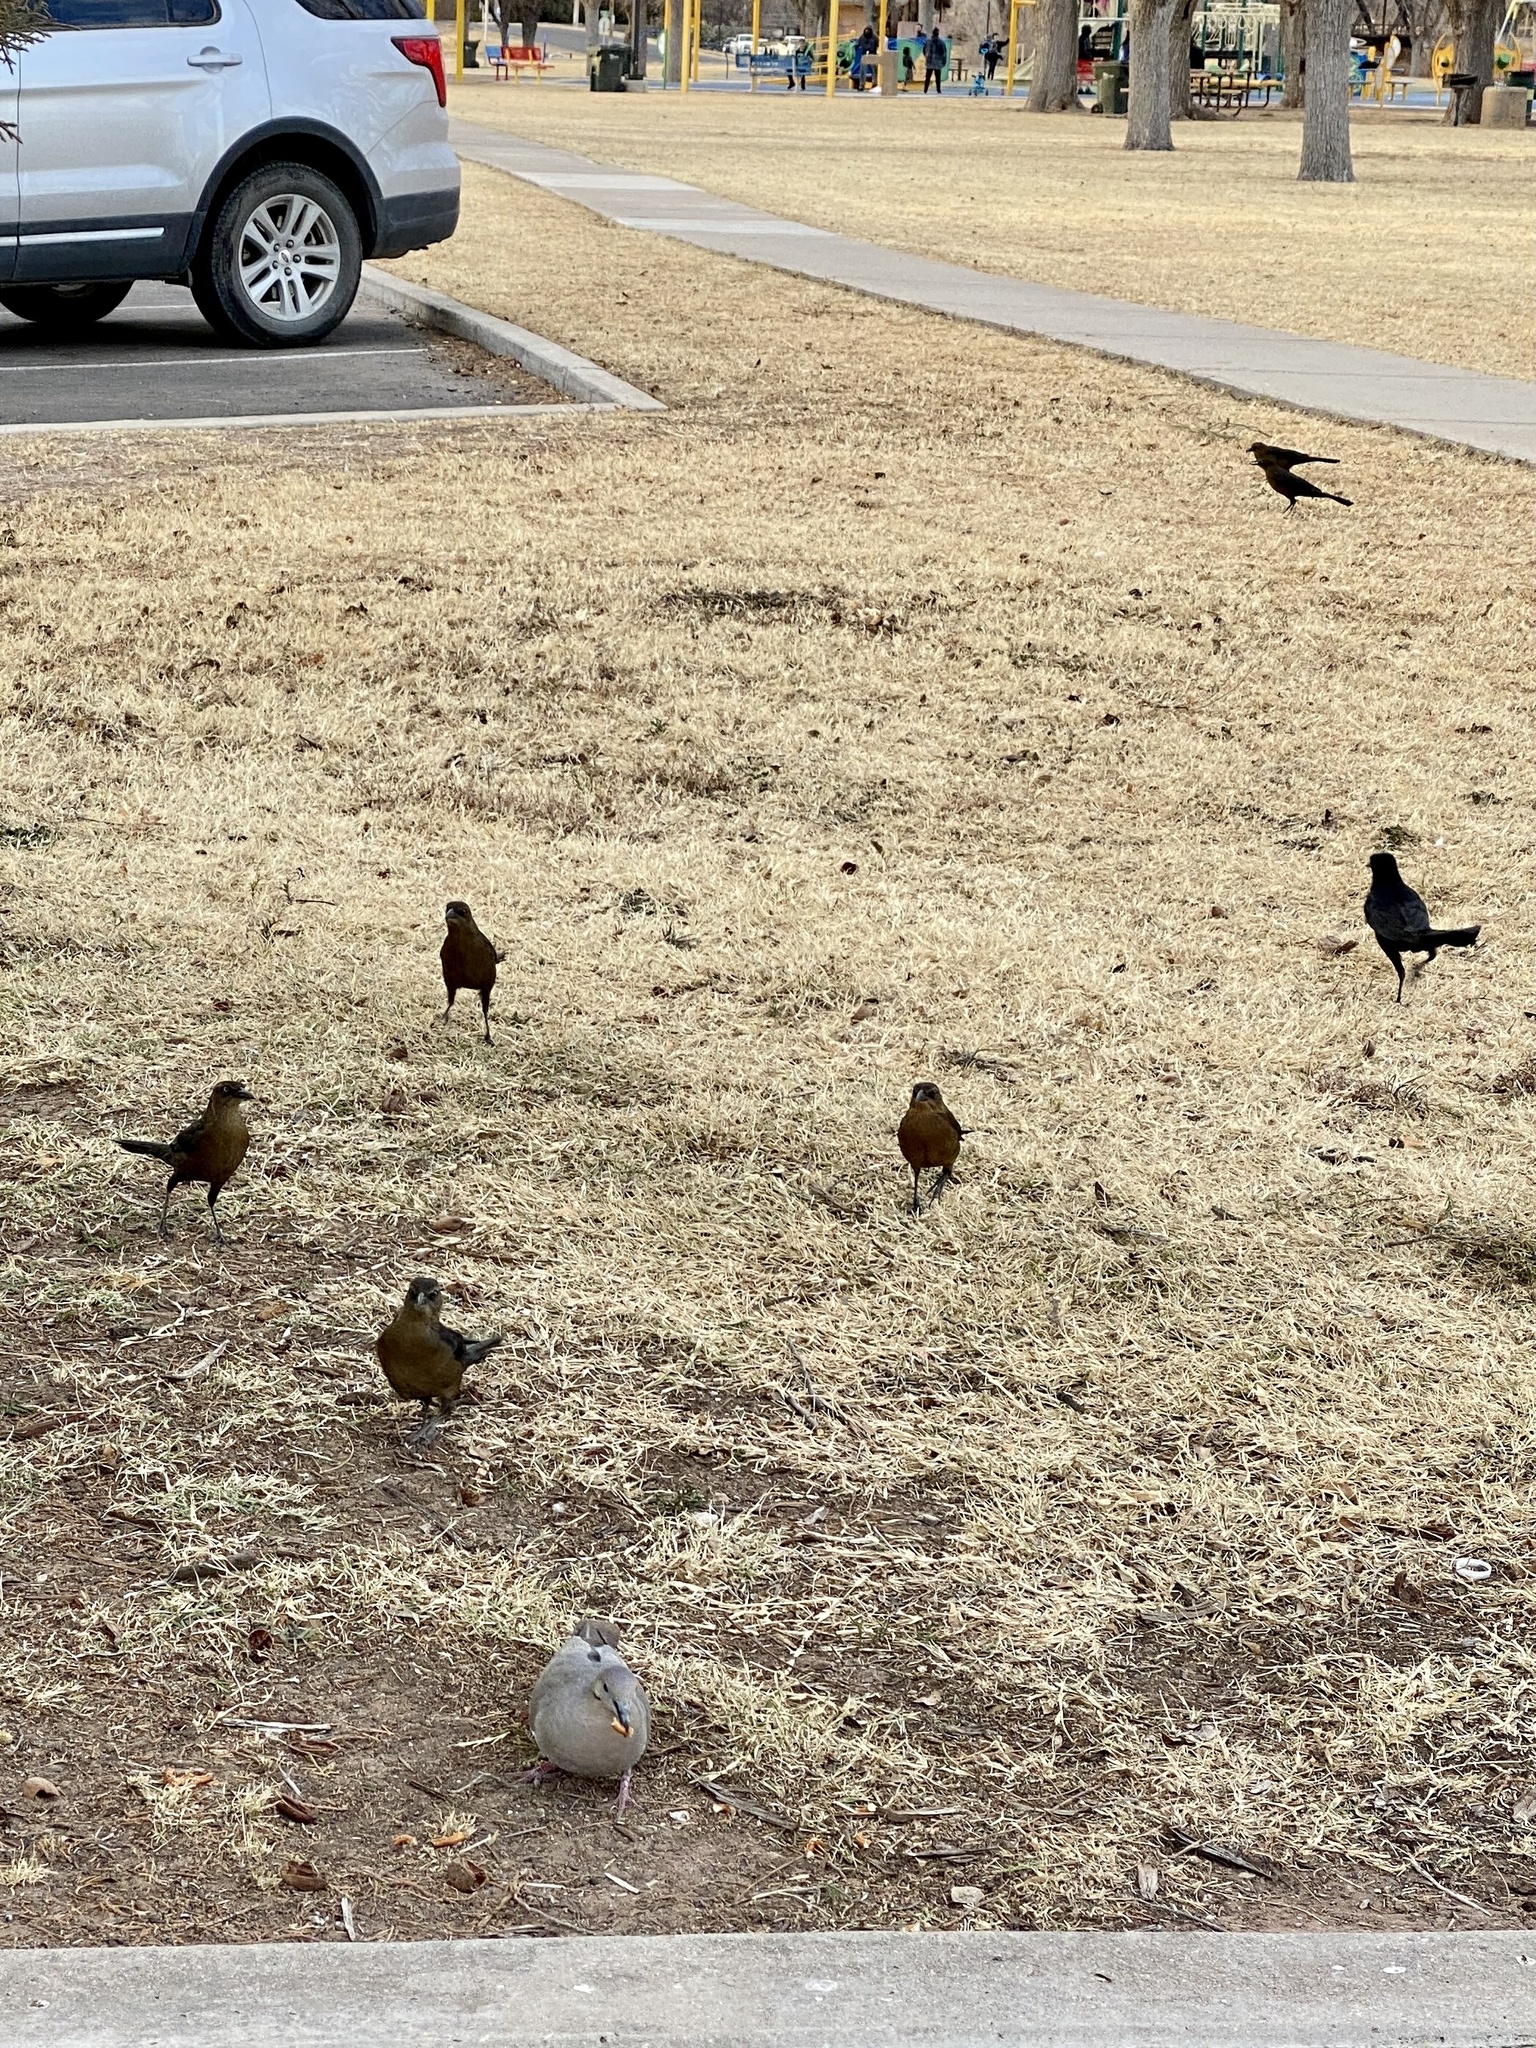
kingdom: Animalia
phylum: Chordata
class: Aves
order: Passeriformes
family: Icteridae
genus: Quiscalus
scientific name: Quiscalus mexicanus
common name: Great-tailed grackle
